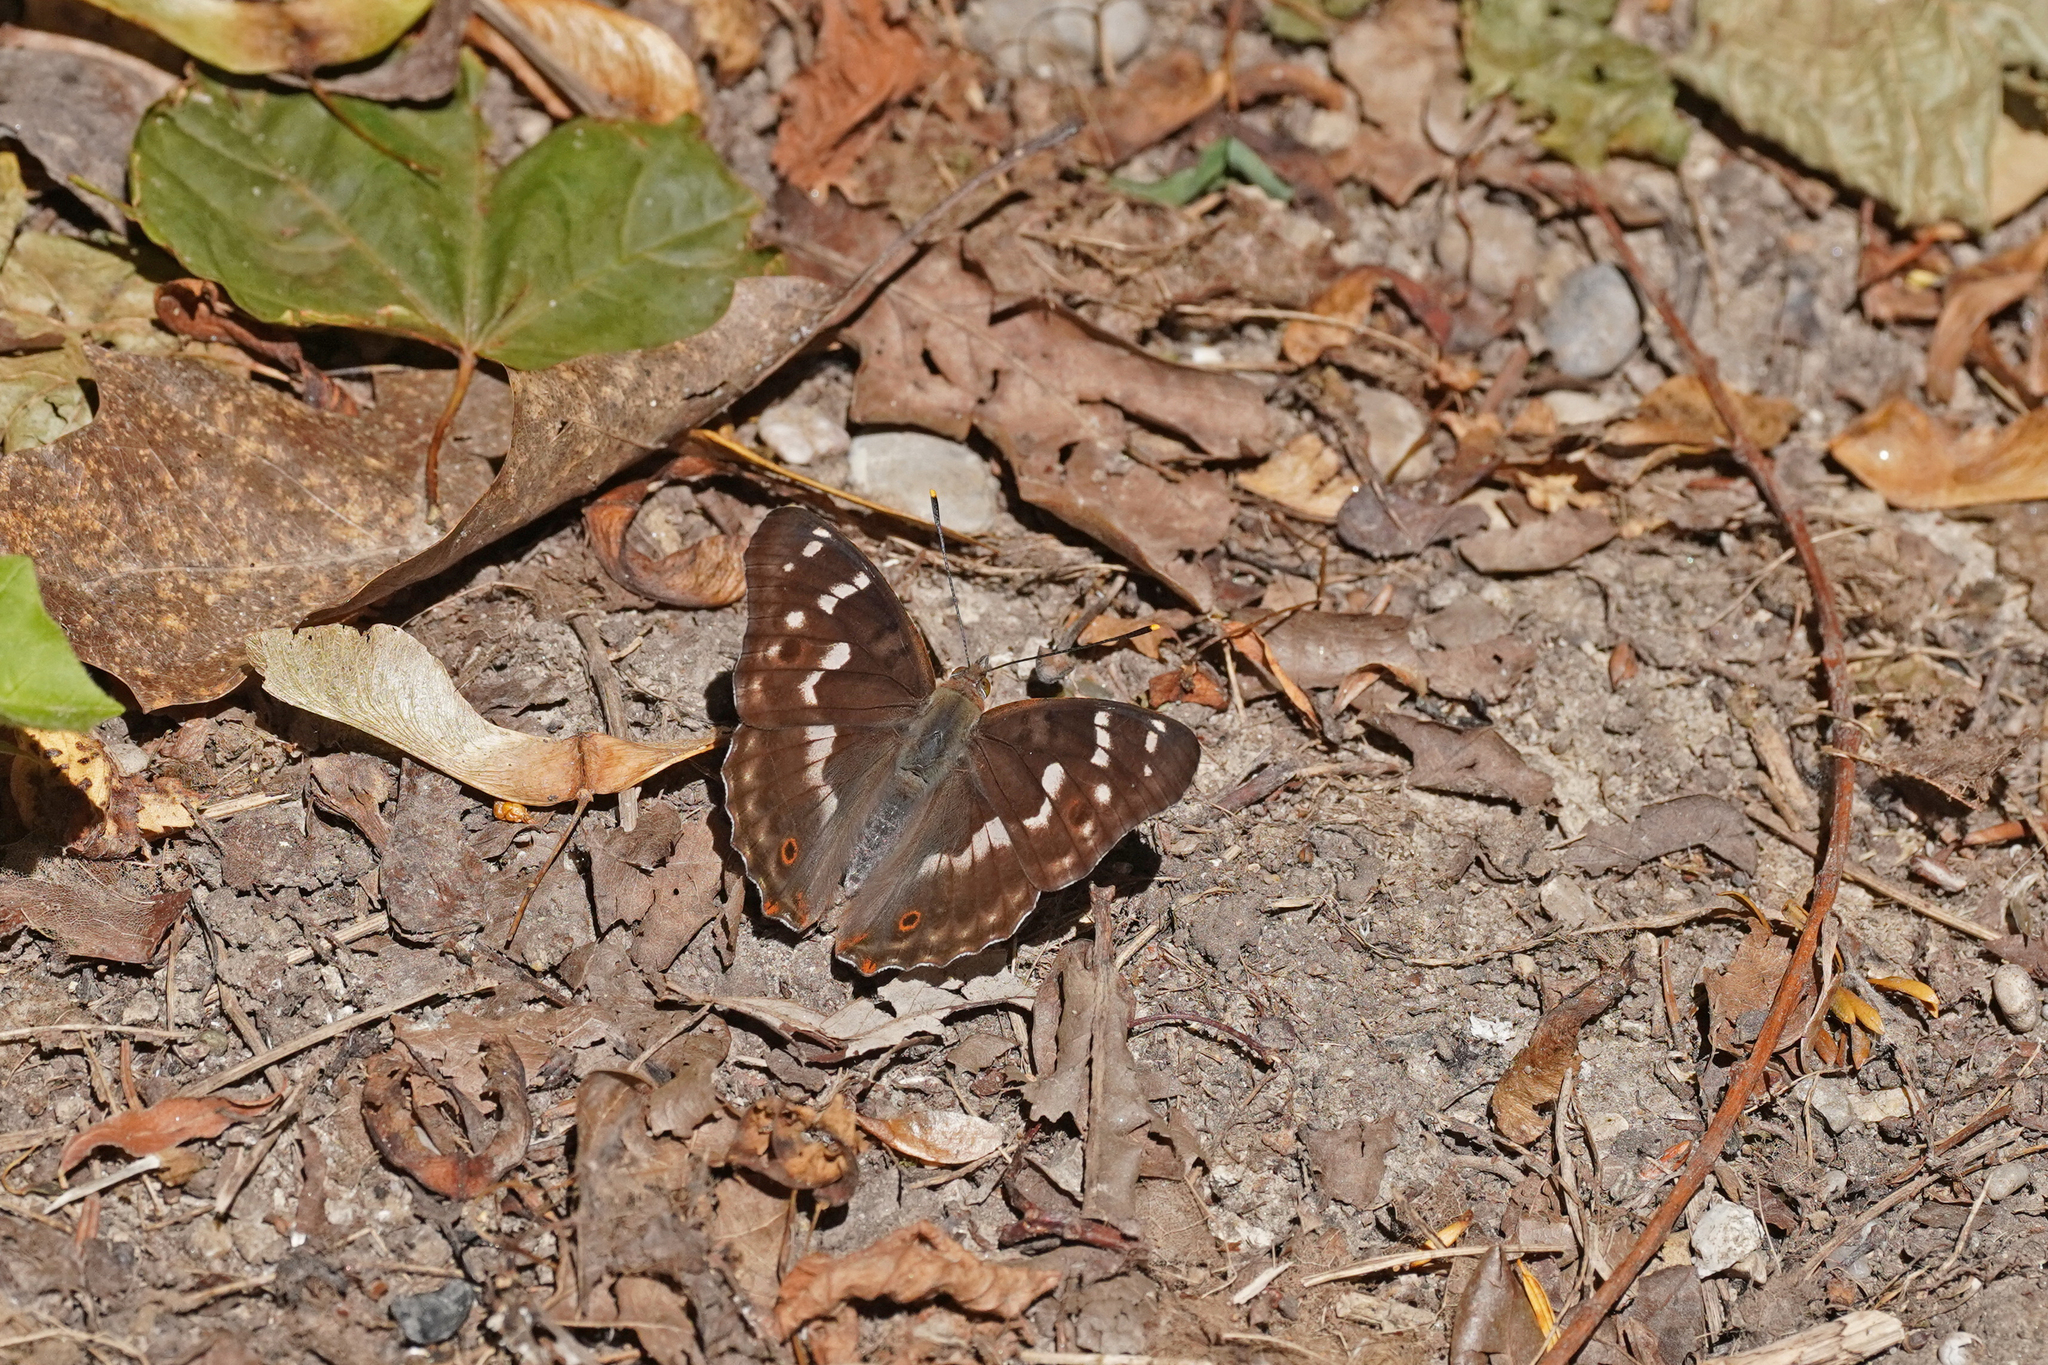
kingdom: Animalia
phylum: Arthropoda
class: Insecta
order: Lepidoptera
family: Nymphalidae
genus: Apatura
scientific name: Apatura ilia
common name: Lesser purple emperor
